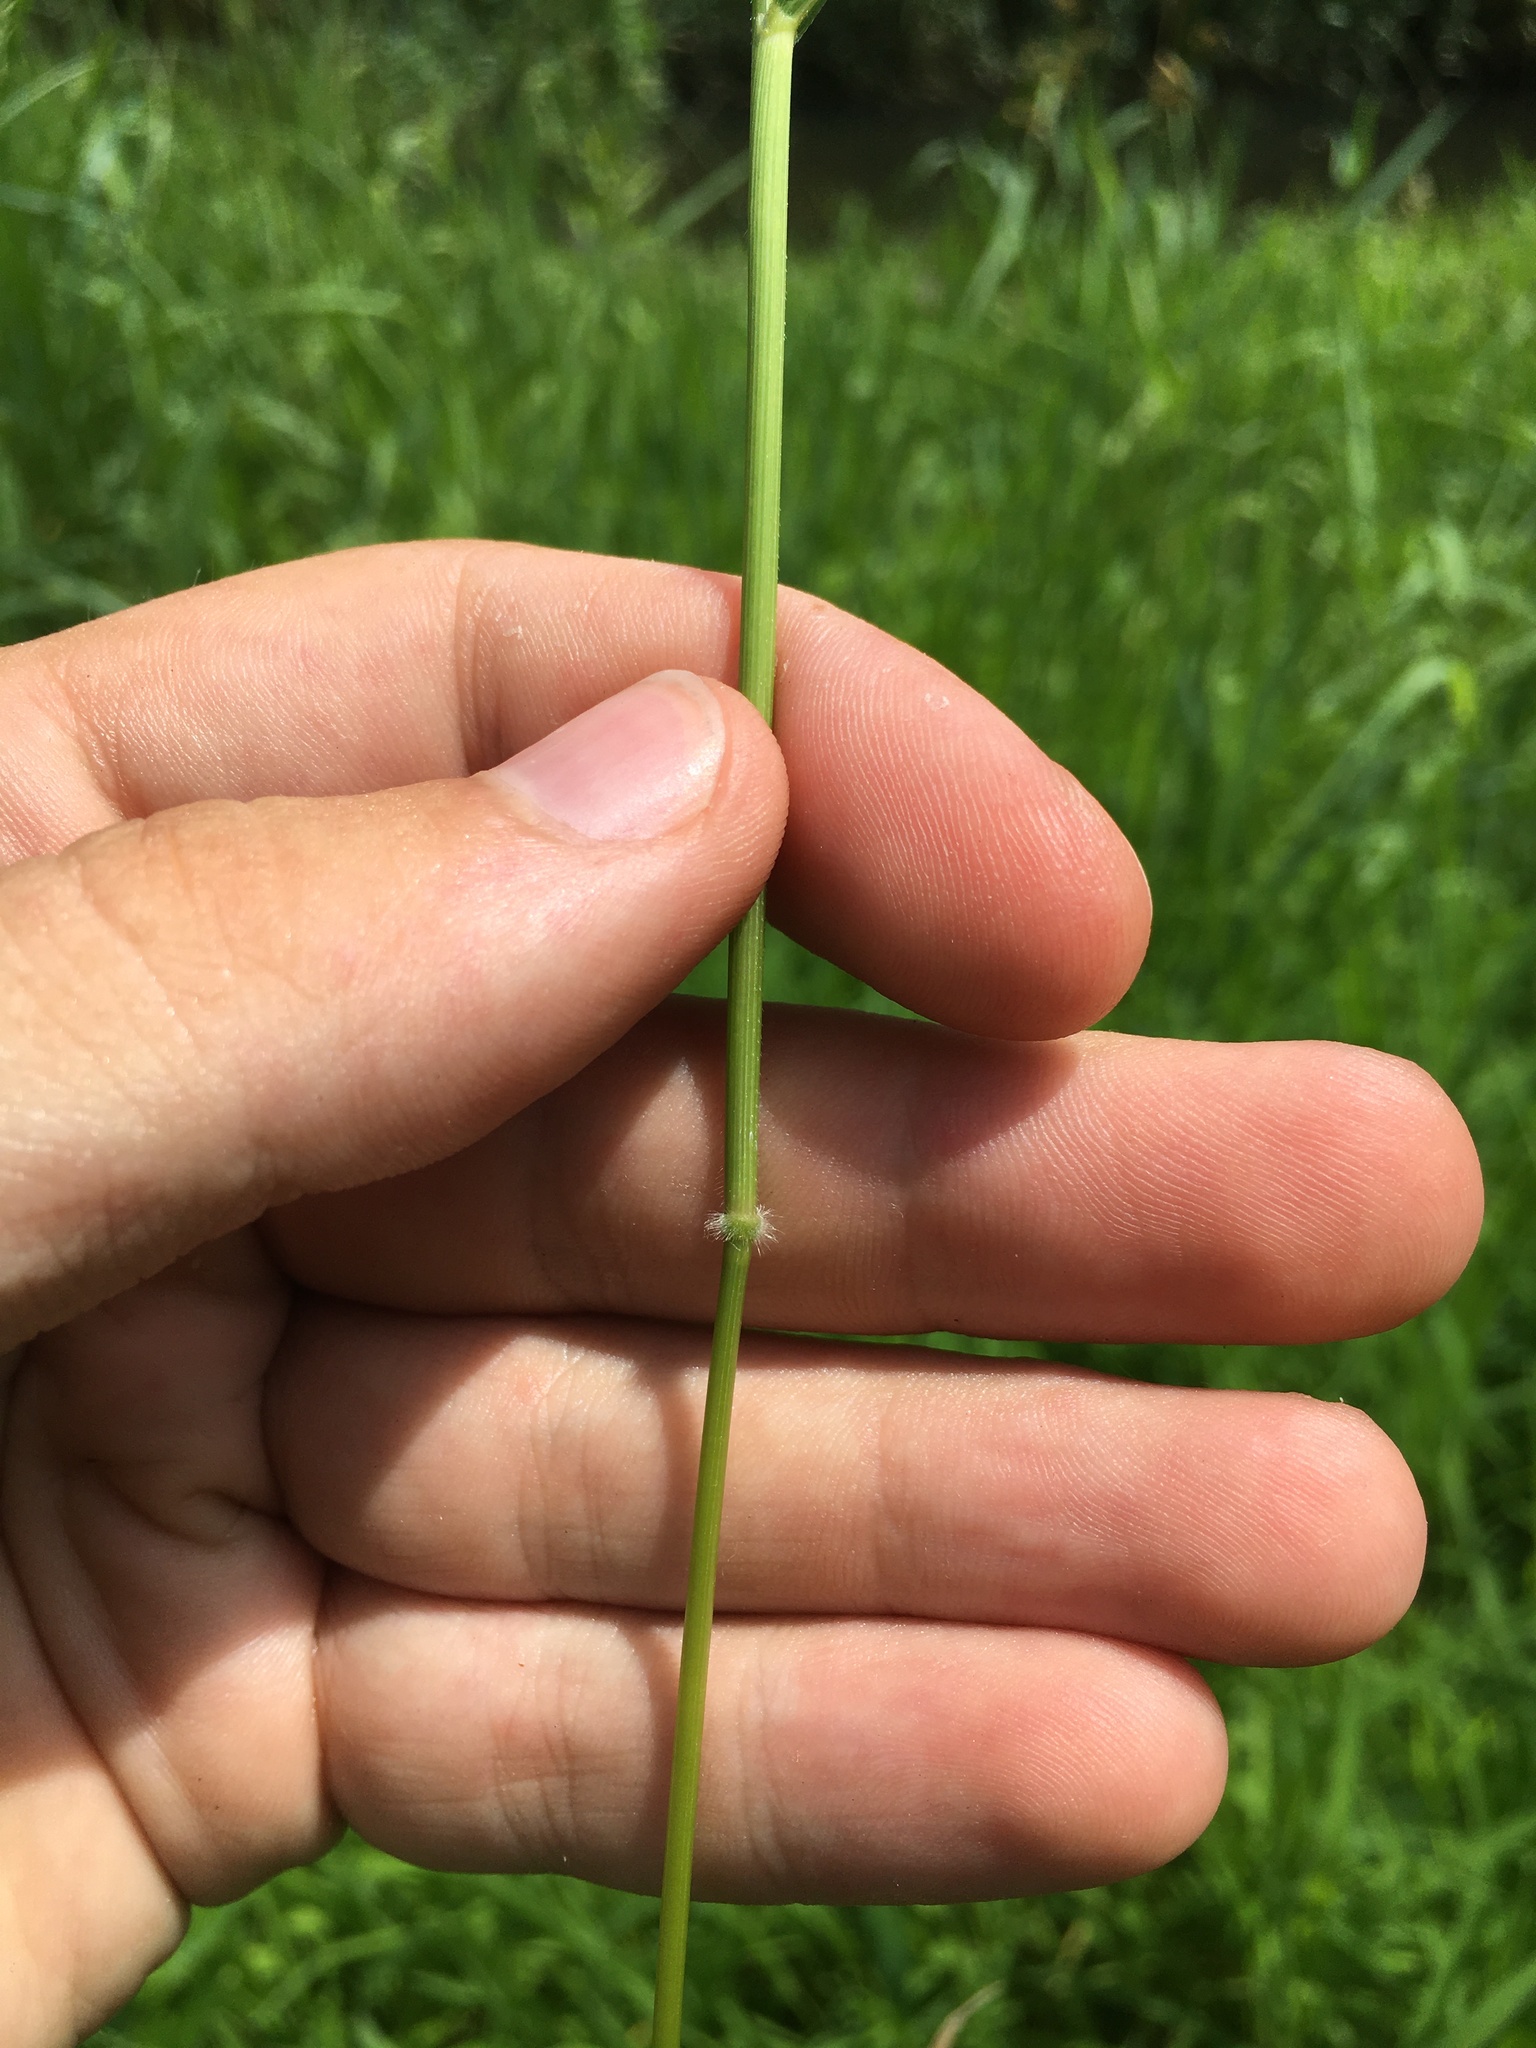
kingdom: Plantae
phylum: Tracheophyta
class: Liliopsida
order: Poales
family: Poaceae
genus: Leersia
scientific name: Leersia oryzoides
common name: Cut-grass
